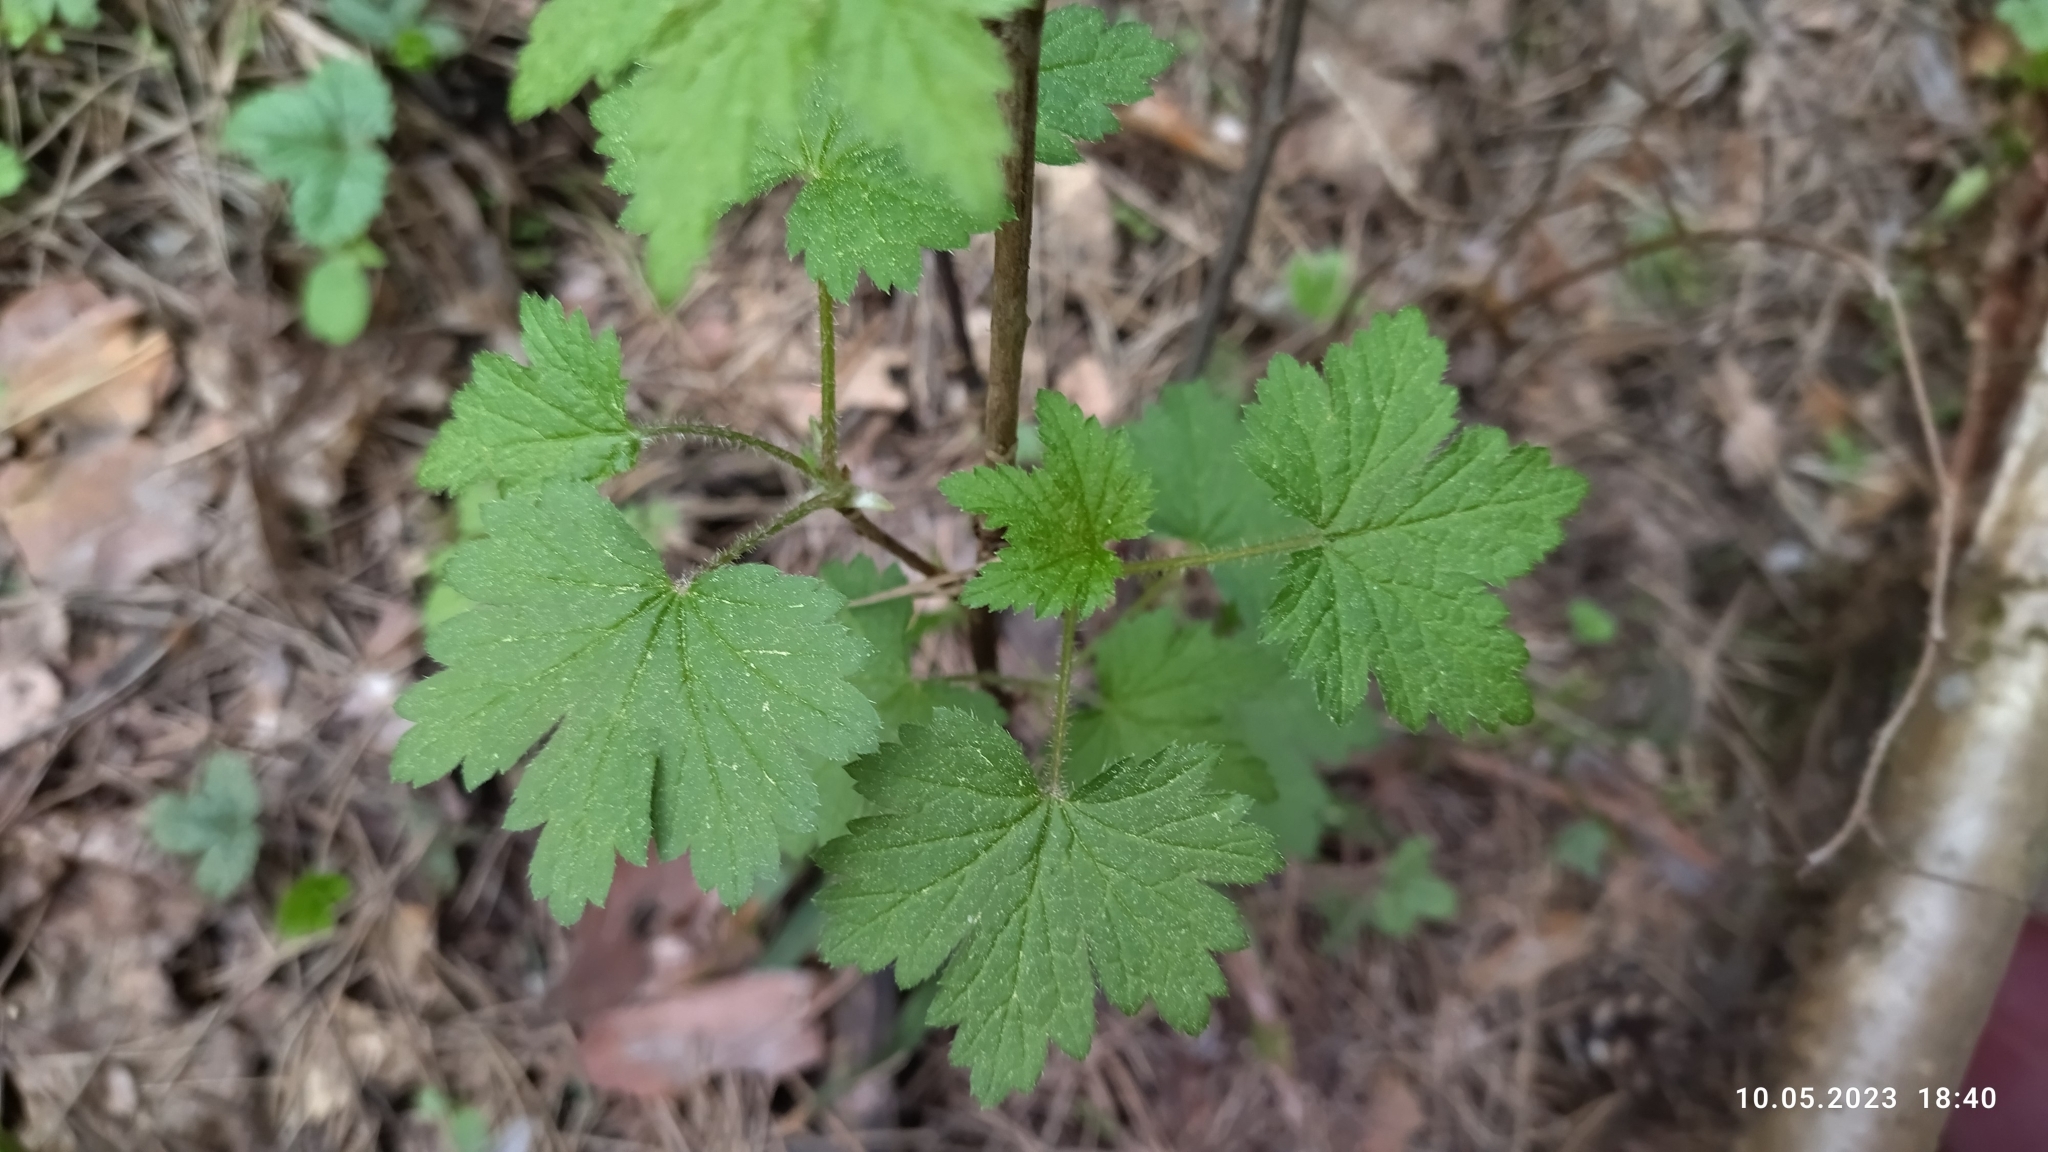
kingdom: Plantae
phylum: Tracheophyta
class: Magnoliopsida
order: Saxifragales
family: Grossulariaceae
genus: Ribes
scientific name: Ribes spicatum
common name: Downy currant
